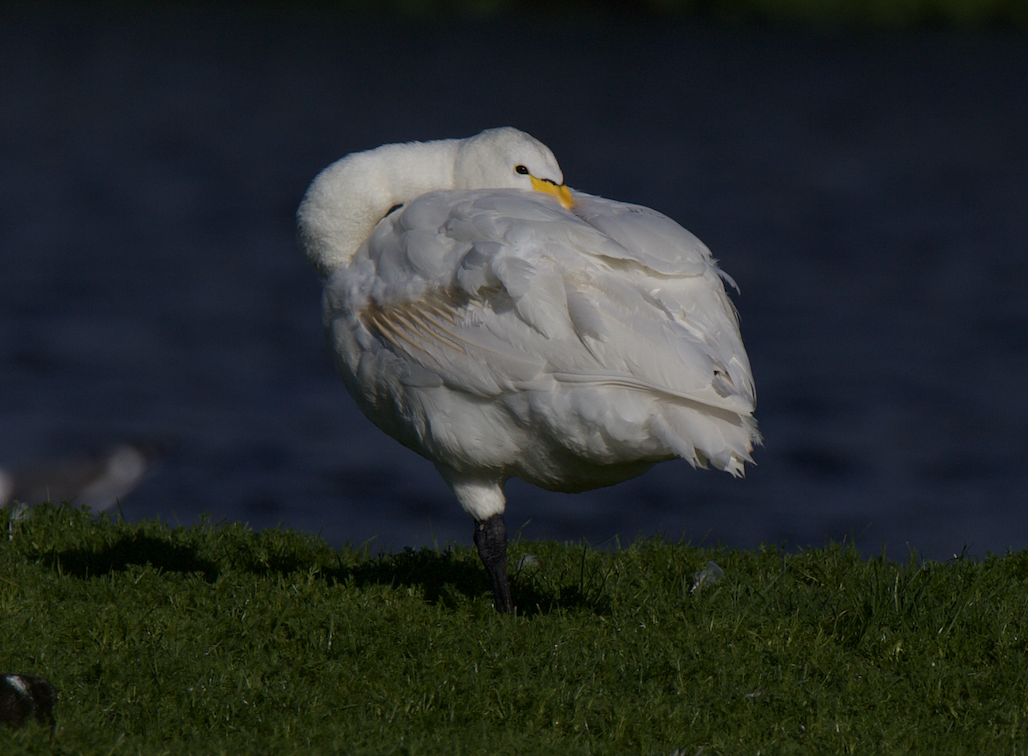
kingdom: Animalia
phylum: Chordata
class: Aves
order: Anseriformes
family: Anatidae
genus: Cygnus
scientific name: Cygnus cygnus
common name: Whooper swan
